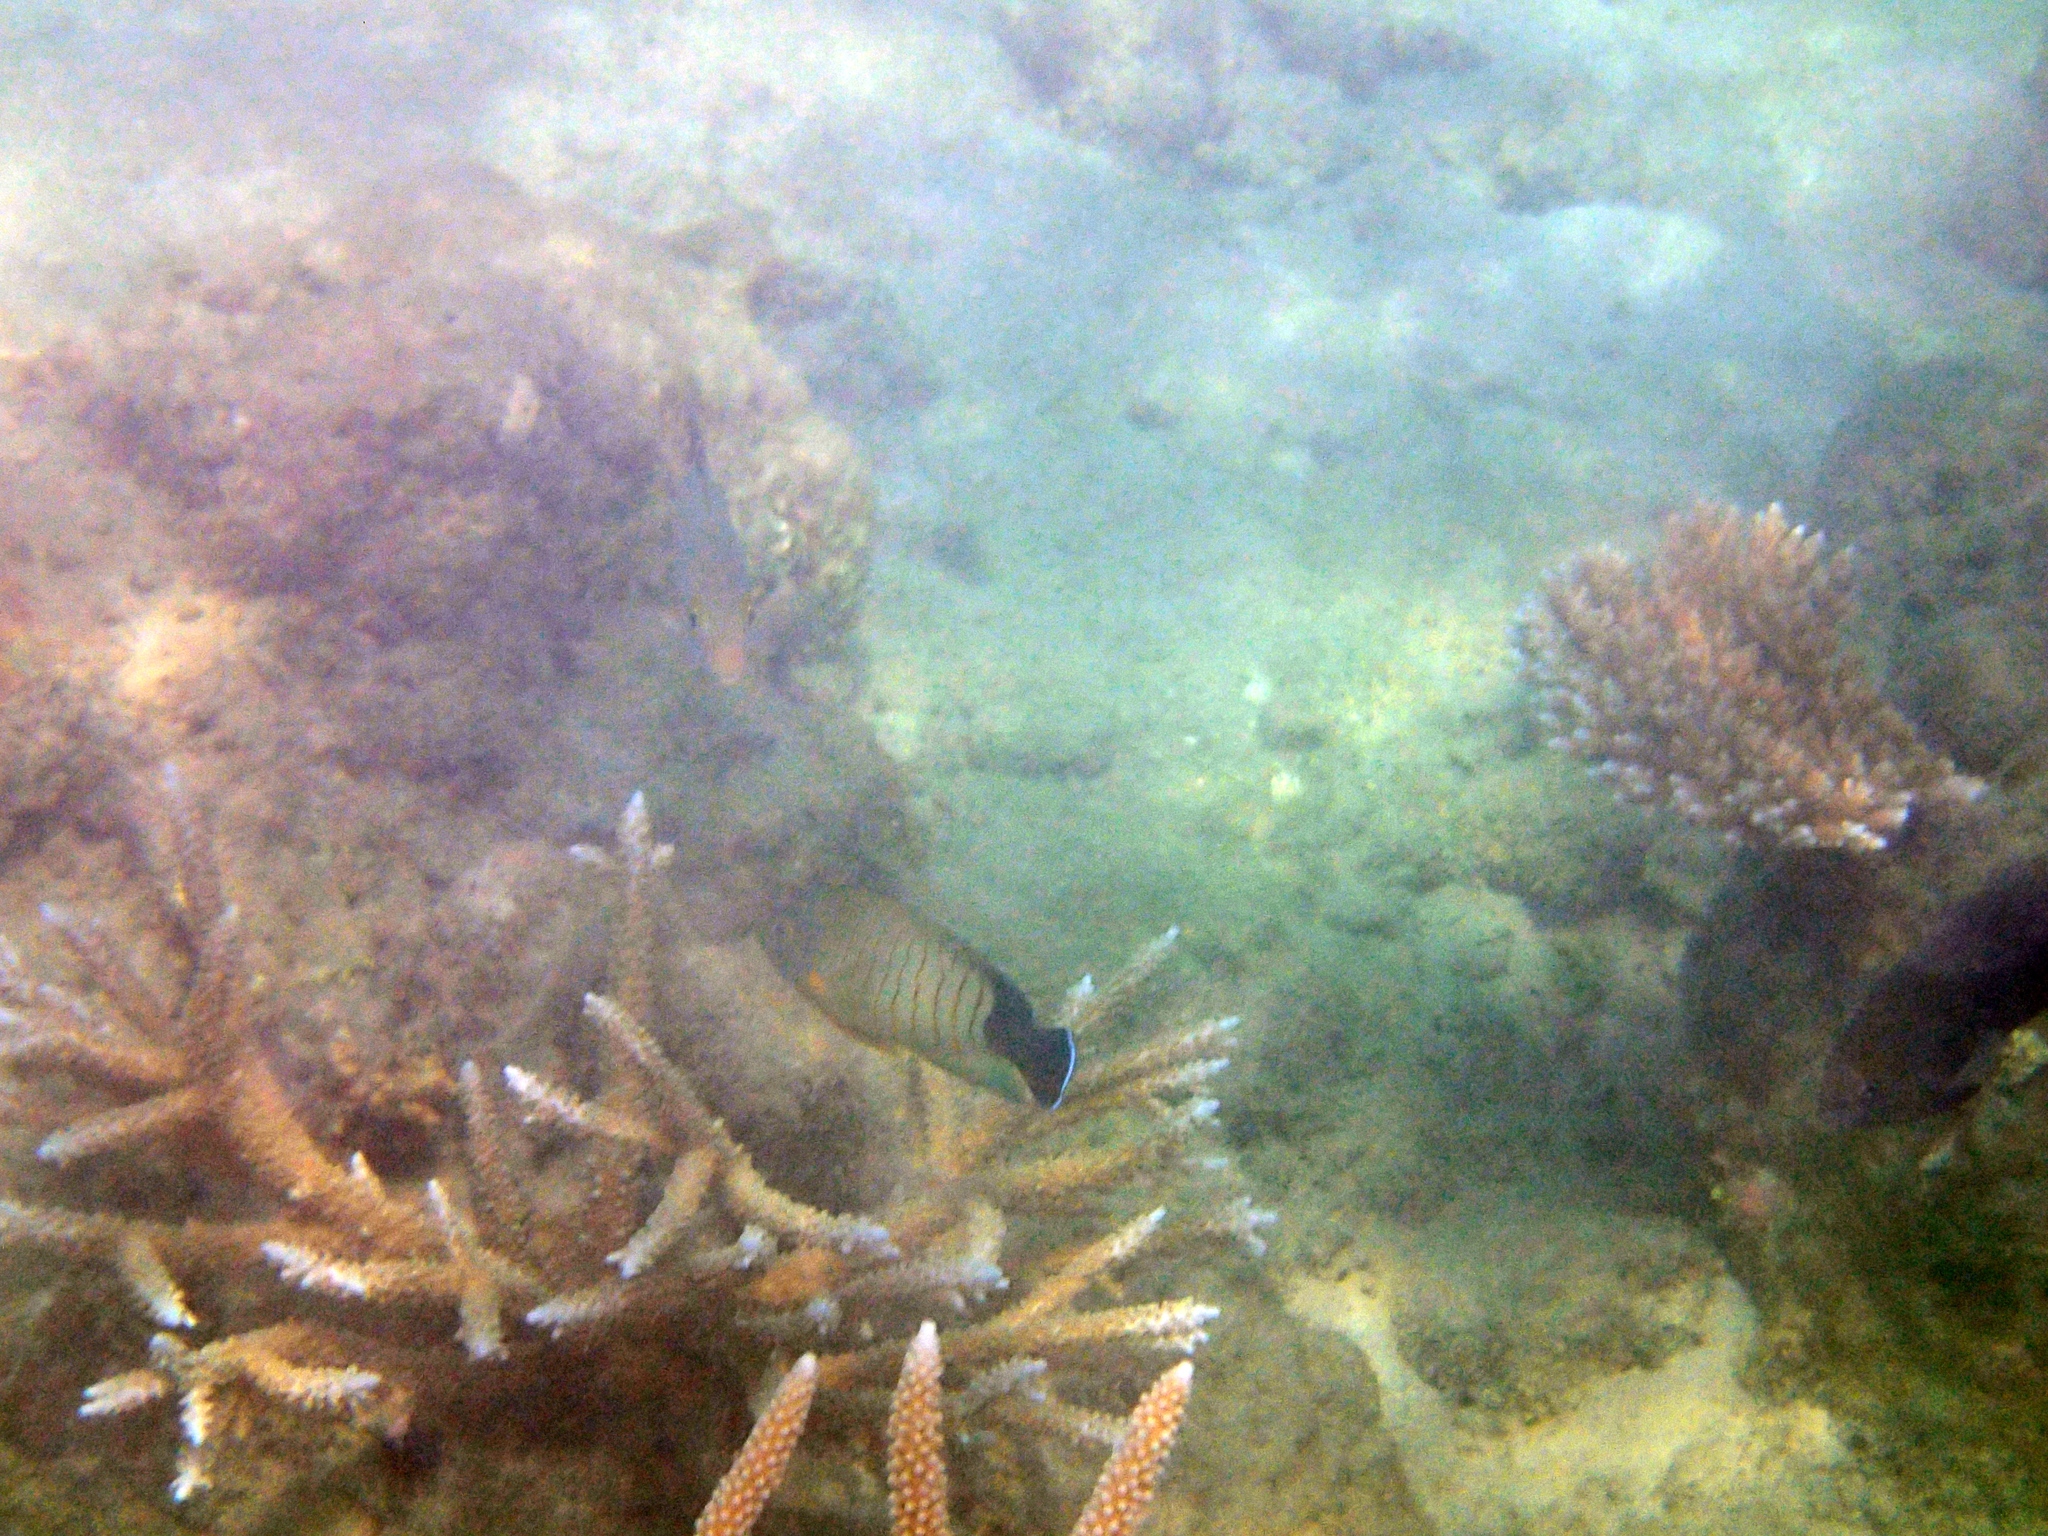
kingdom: Animalia
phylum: Chordata
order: Perciformes
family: Pomacanthidae
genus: Centropyge
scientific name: Centropyge eibli
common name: Eibl's angelfish
